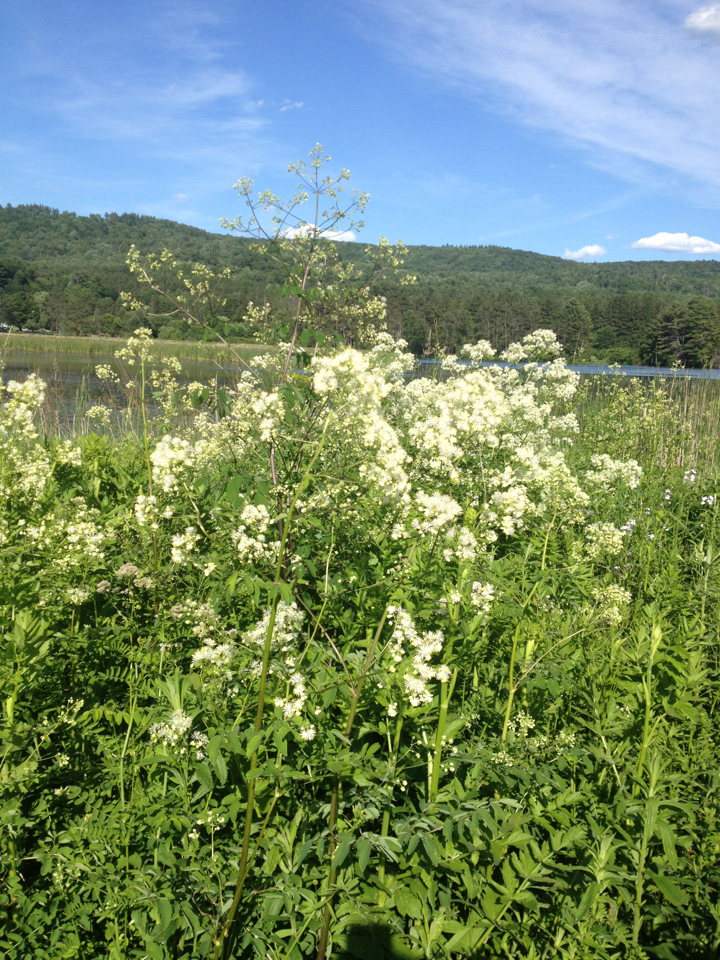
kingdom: Plantae
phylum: Tracheophyta
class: Magnoliopsida
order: Ranunculales
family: Ranunculaceae
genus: Thalictrum
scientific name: Thalictrum pubescens
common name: King-of-the-meadow
